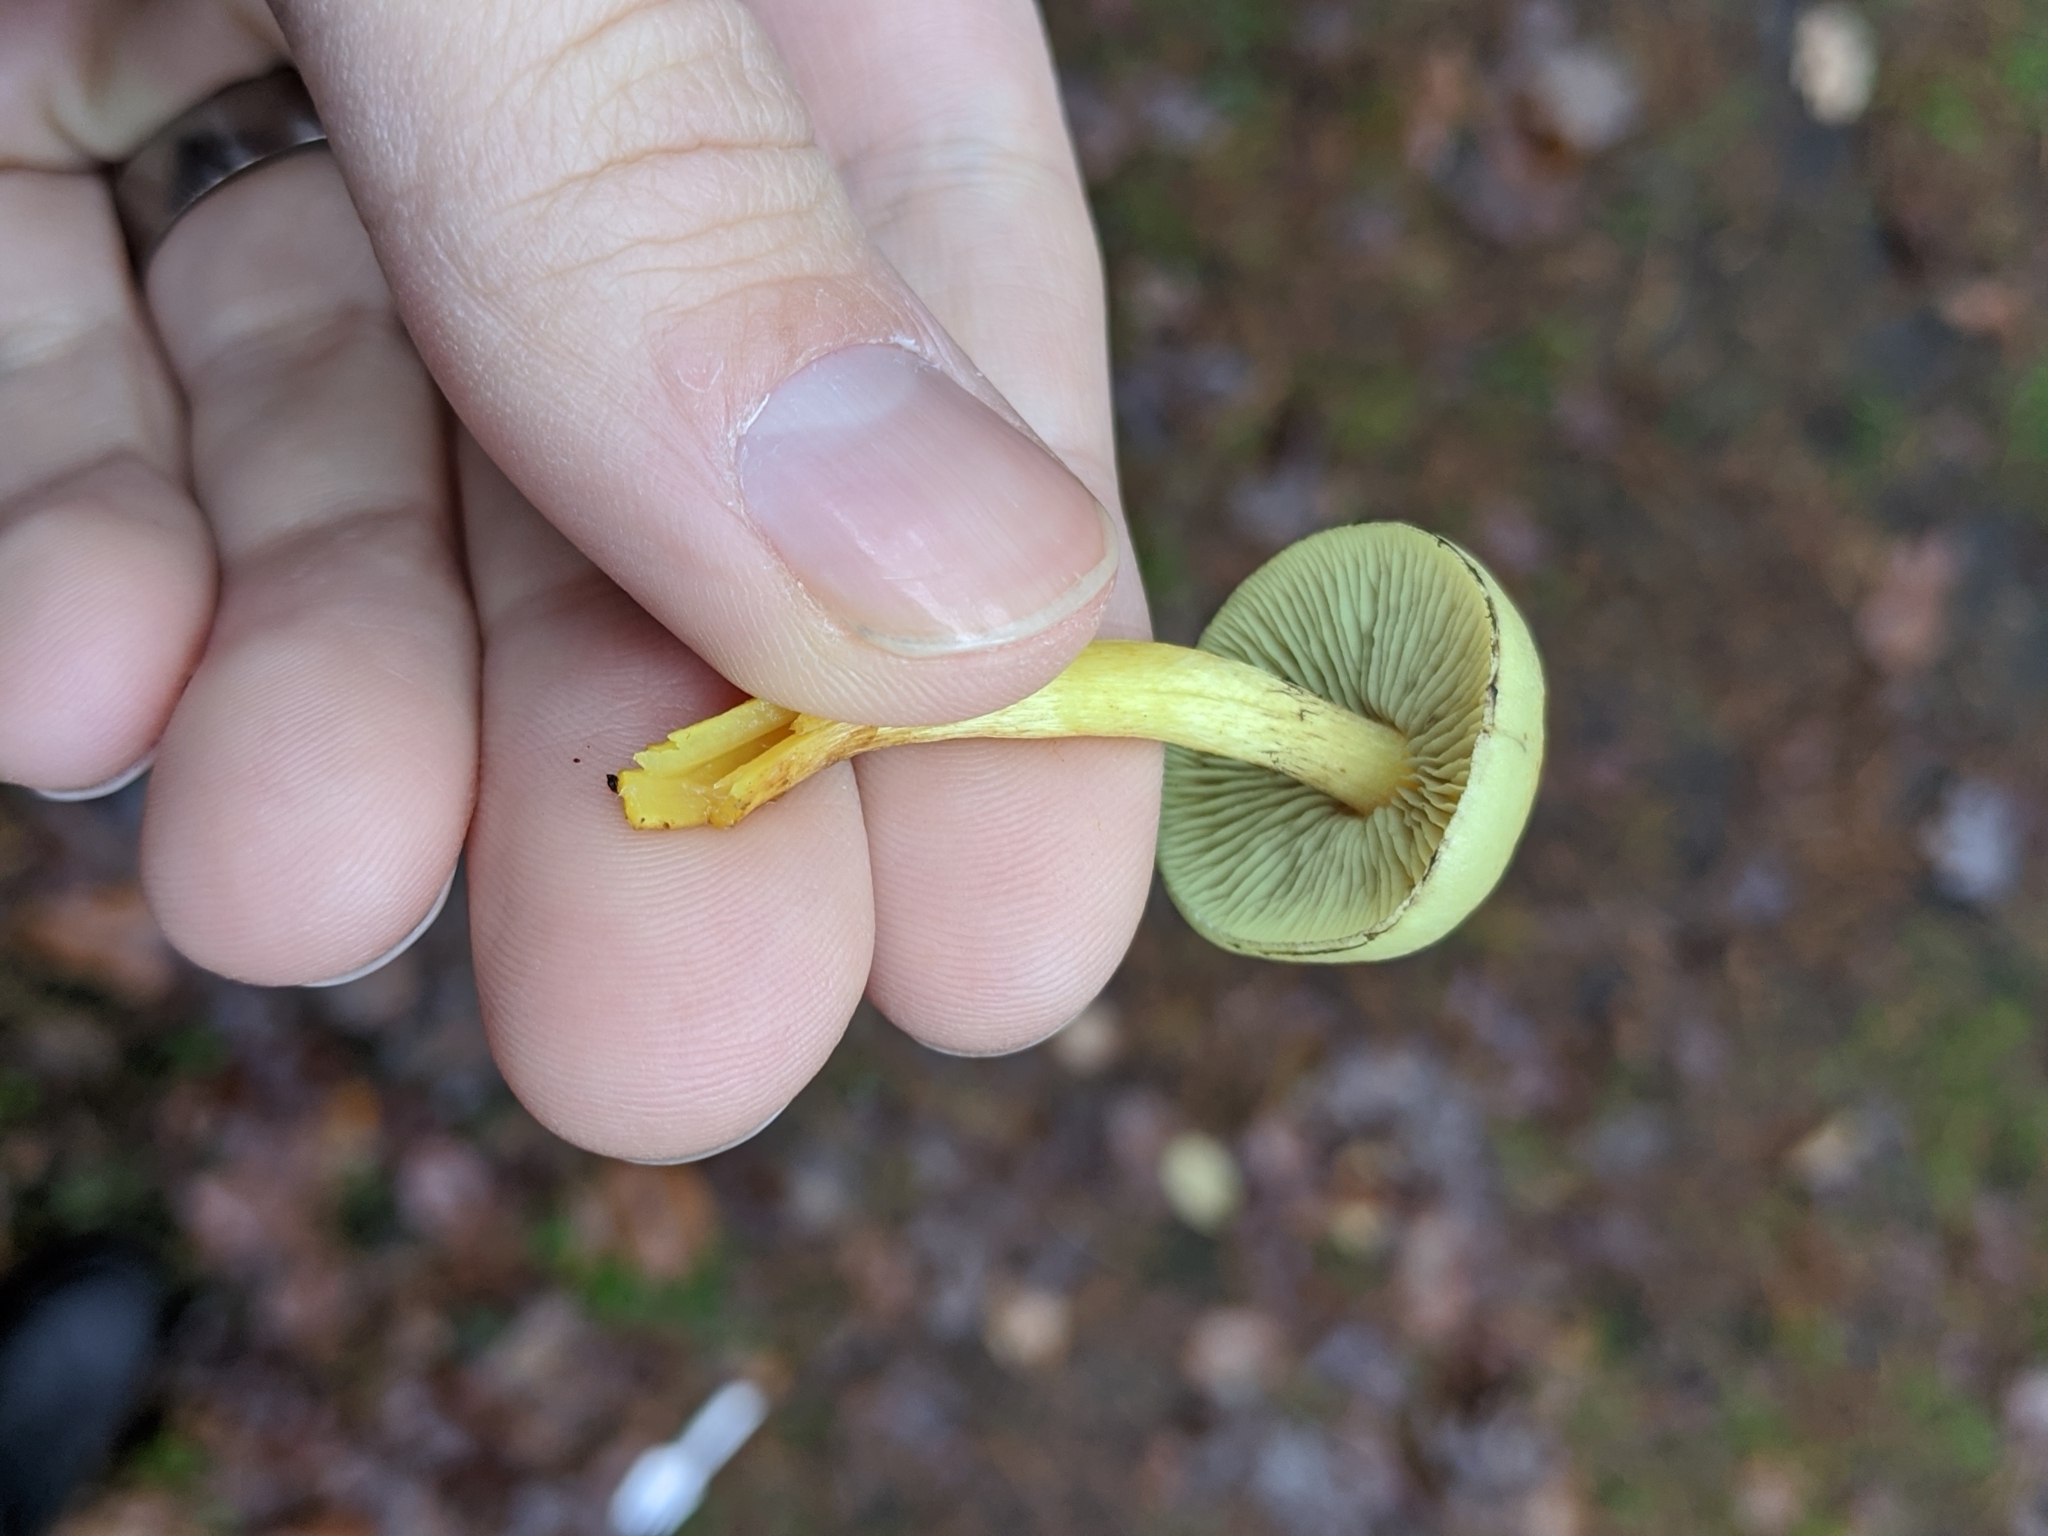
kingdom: Fungi
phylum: Basidiomycota
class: Agaricomycetes
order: Agaricales
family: Strophariaceae
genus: Hypholoma
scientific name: Hypholoma fasciculare
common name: Sulphur tuft
